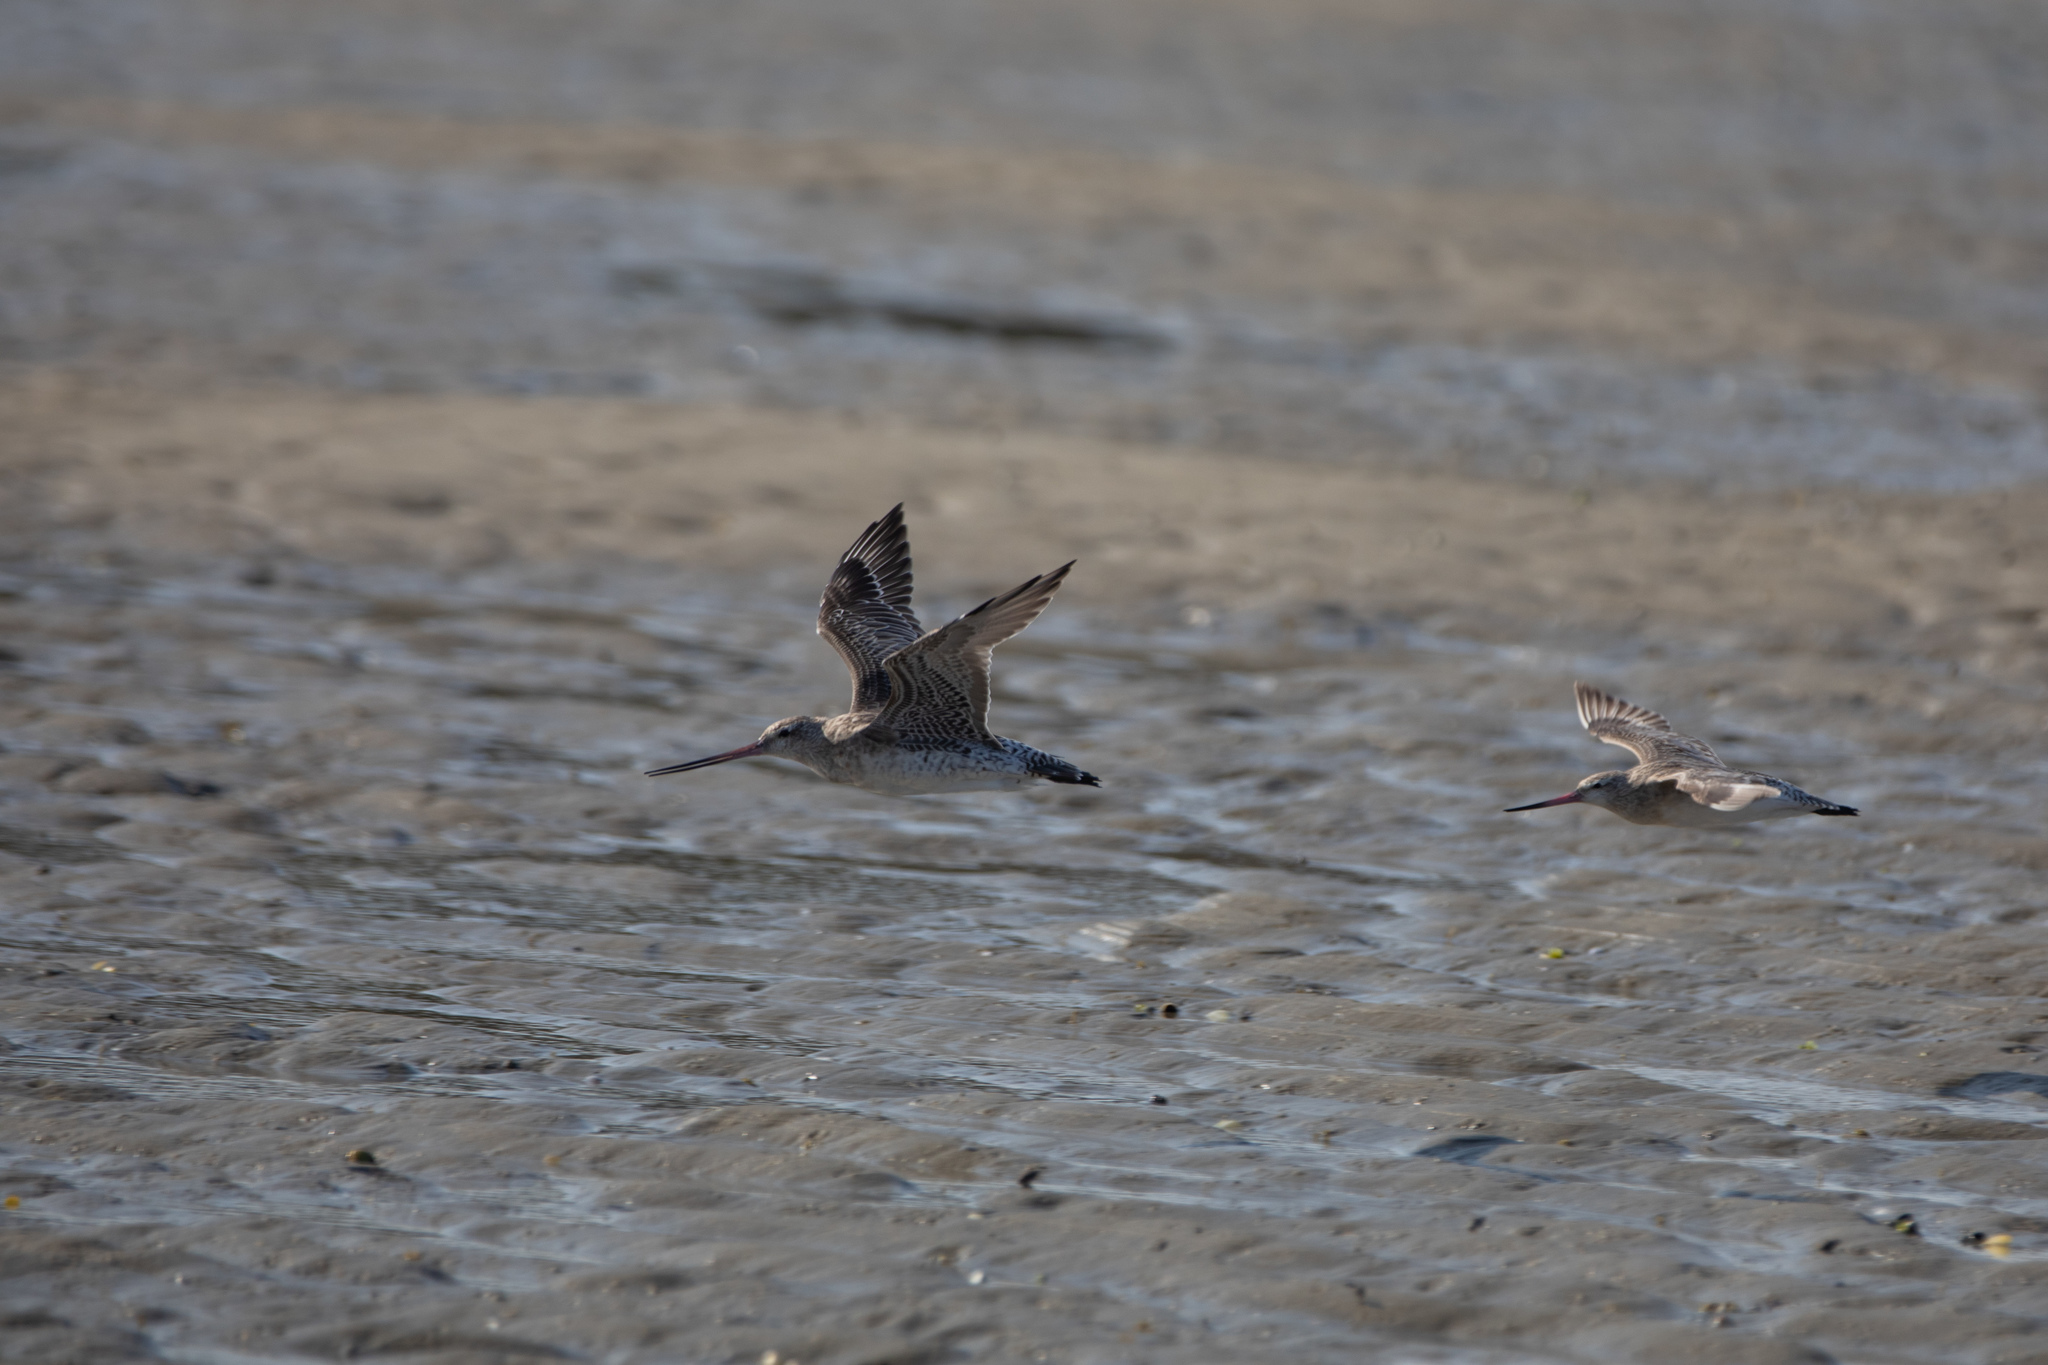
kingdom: Animalia
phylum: Chordata
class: Aves
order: Charadriiformes
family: Scolopacidae
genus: Limosa
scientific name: Limosa lapponica
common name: Bar-tailed godwit
